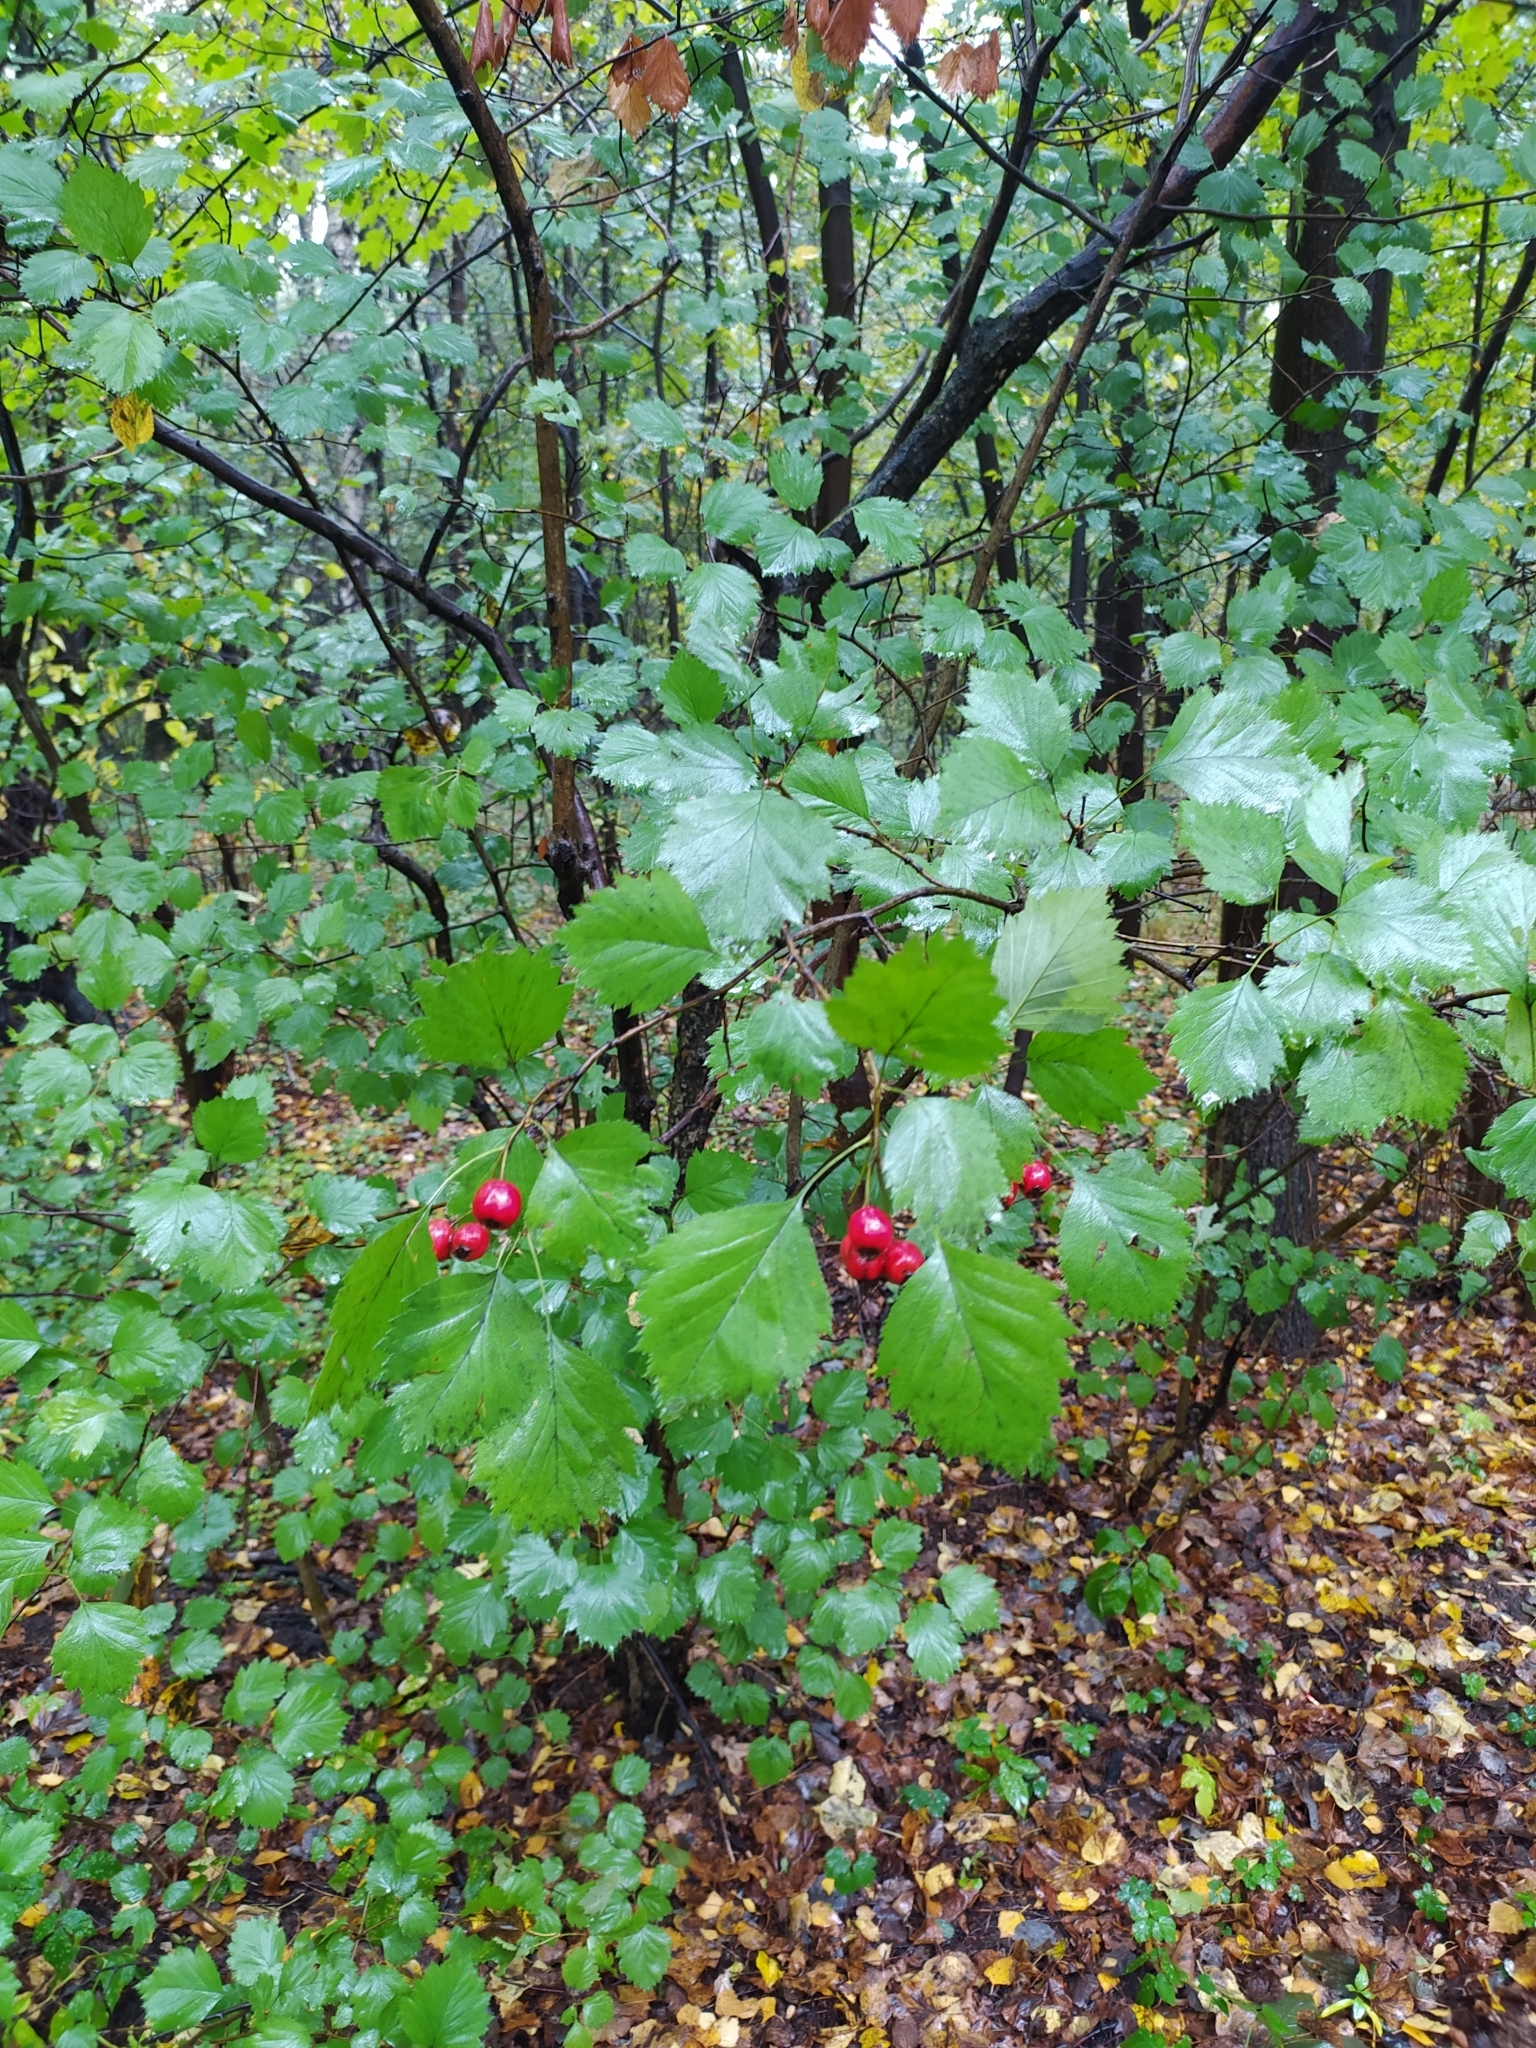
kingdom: Plantae
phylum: Tracheophyta
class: Magnoliopsida
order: Rosales
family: Rosaceae
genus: Crataegus
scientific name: Crataegus sanguinea
